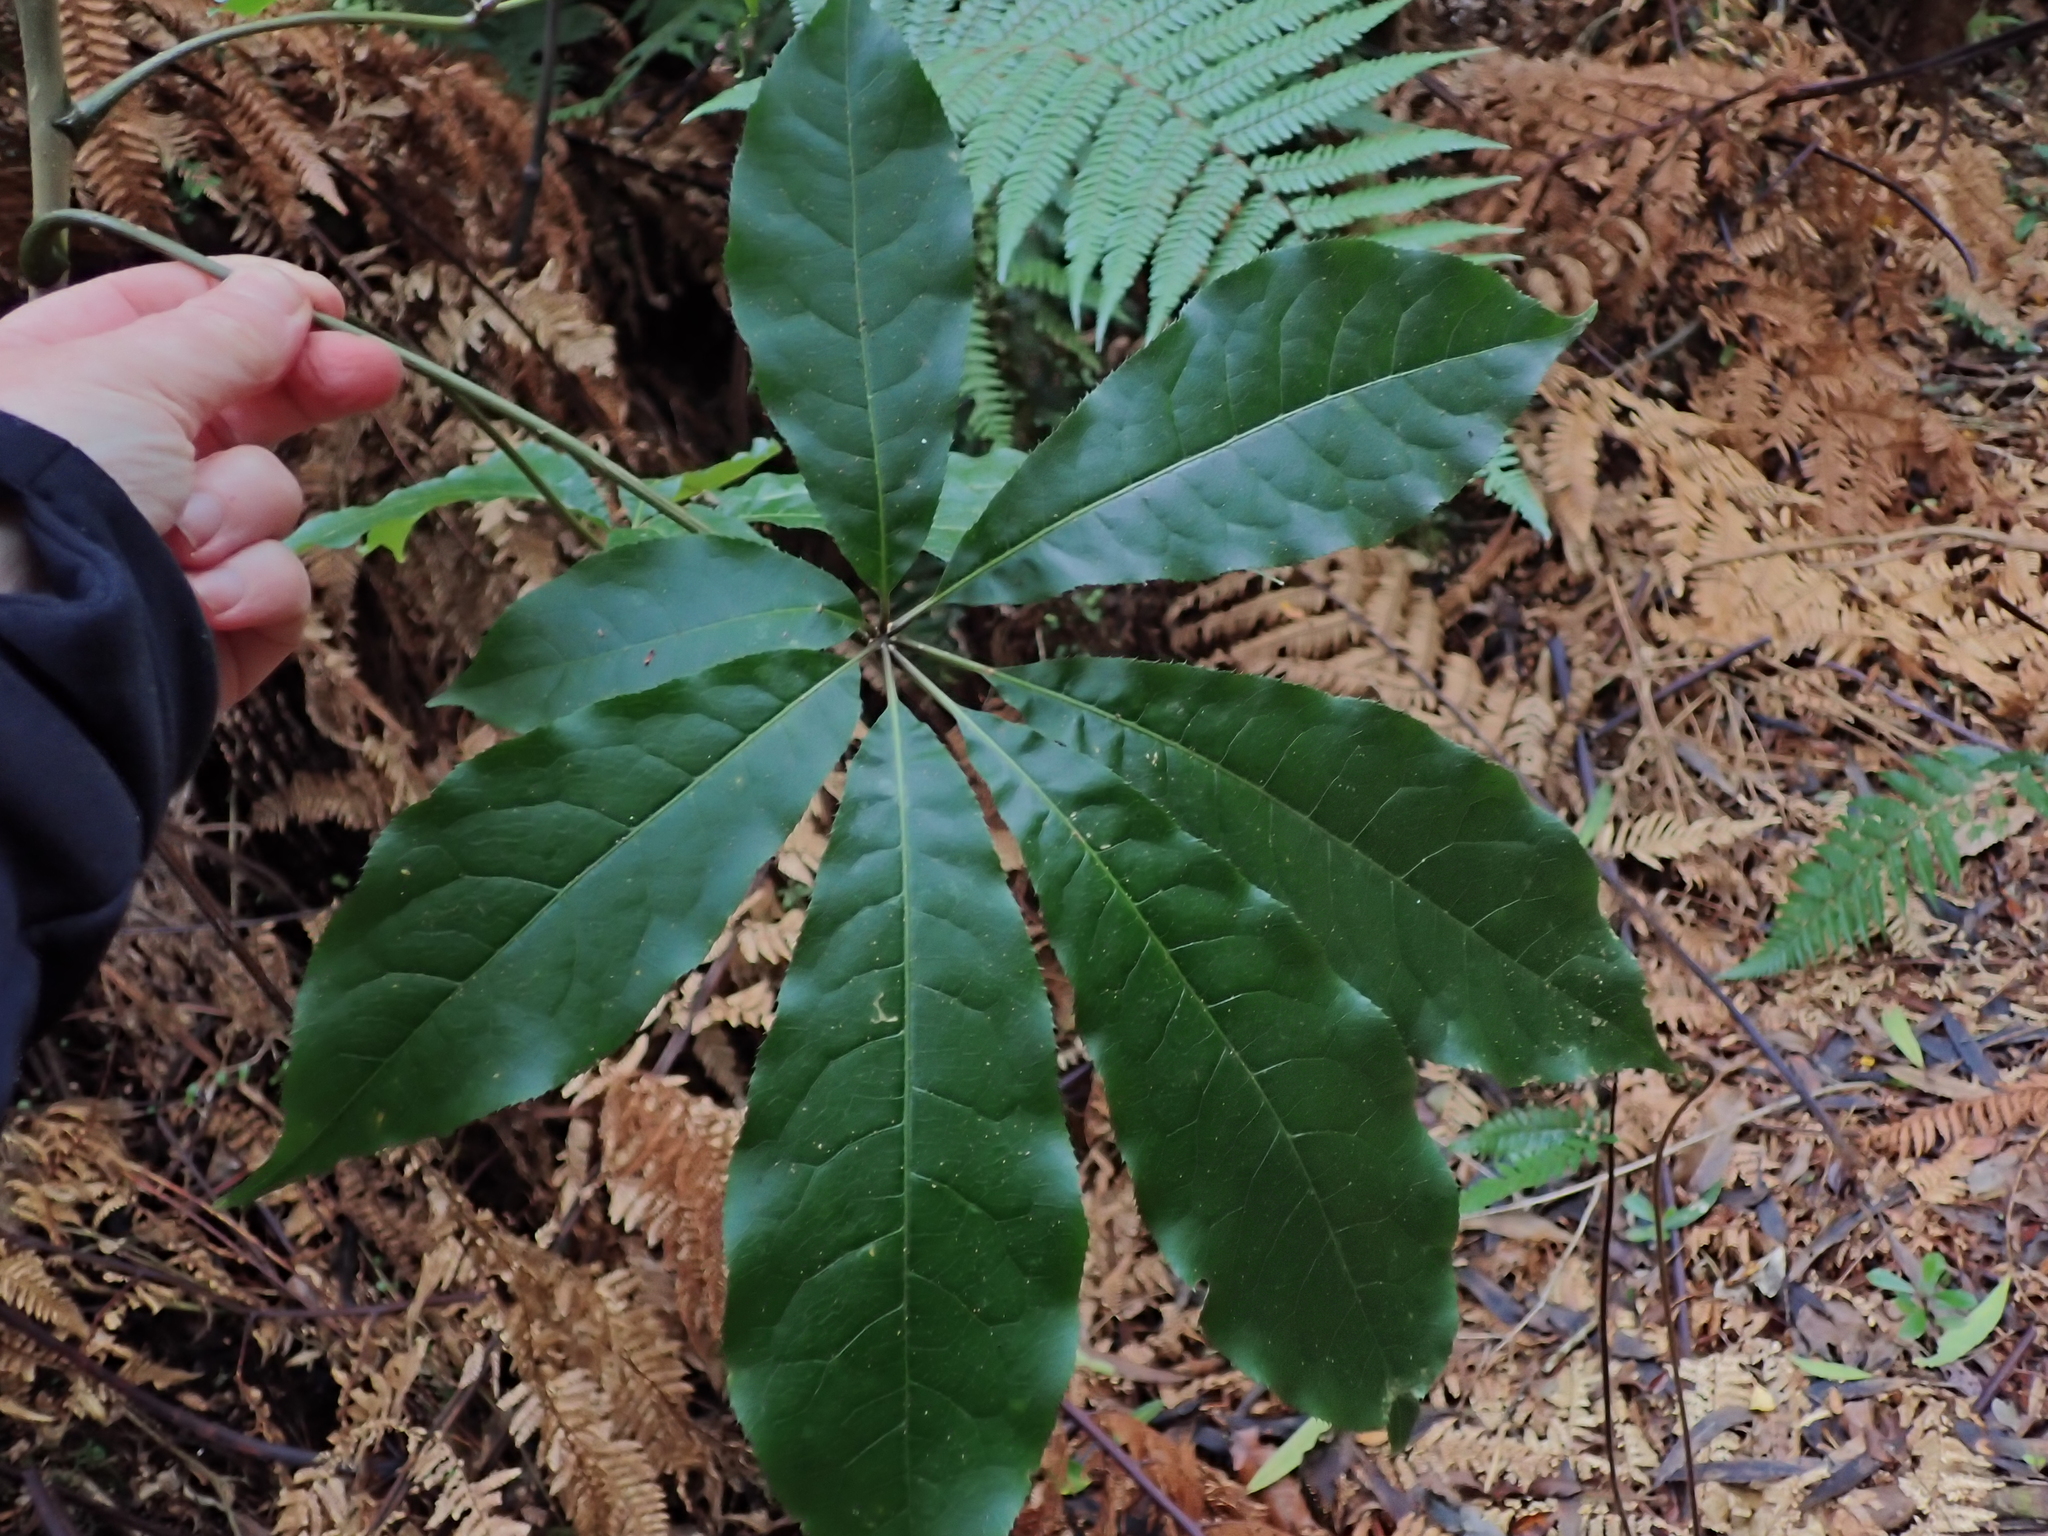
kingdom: Plantae
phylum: Tracheophyta
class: Magnoliopsida
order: Apiales
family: Araliaceae
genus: Schefflera
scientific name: Schefflera digitata
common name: Pate
